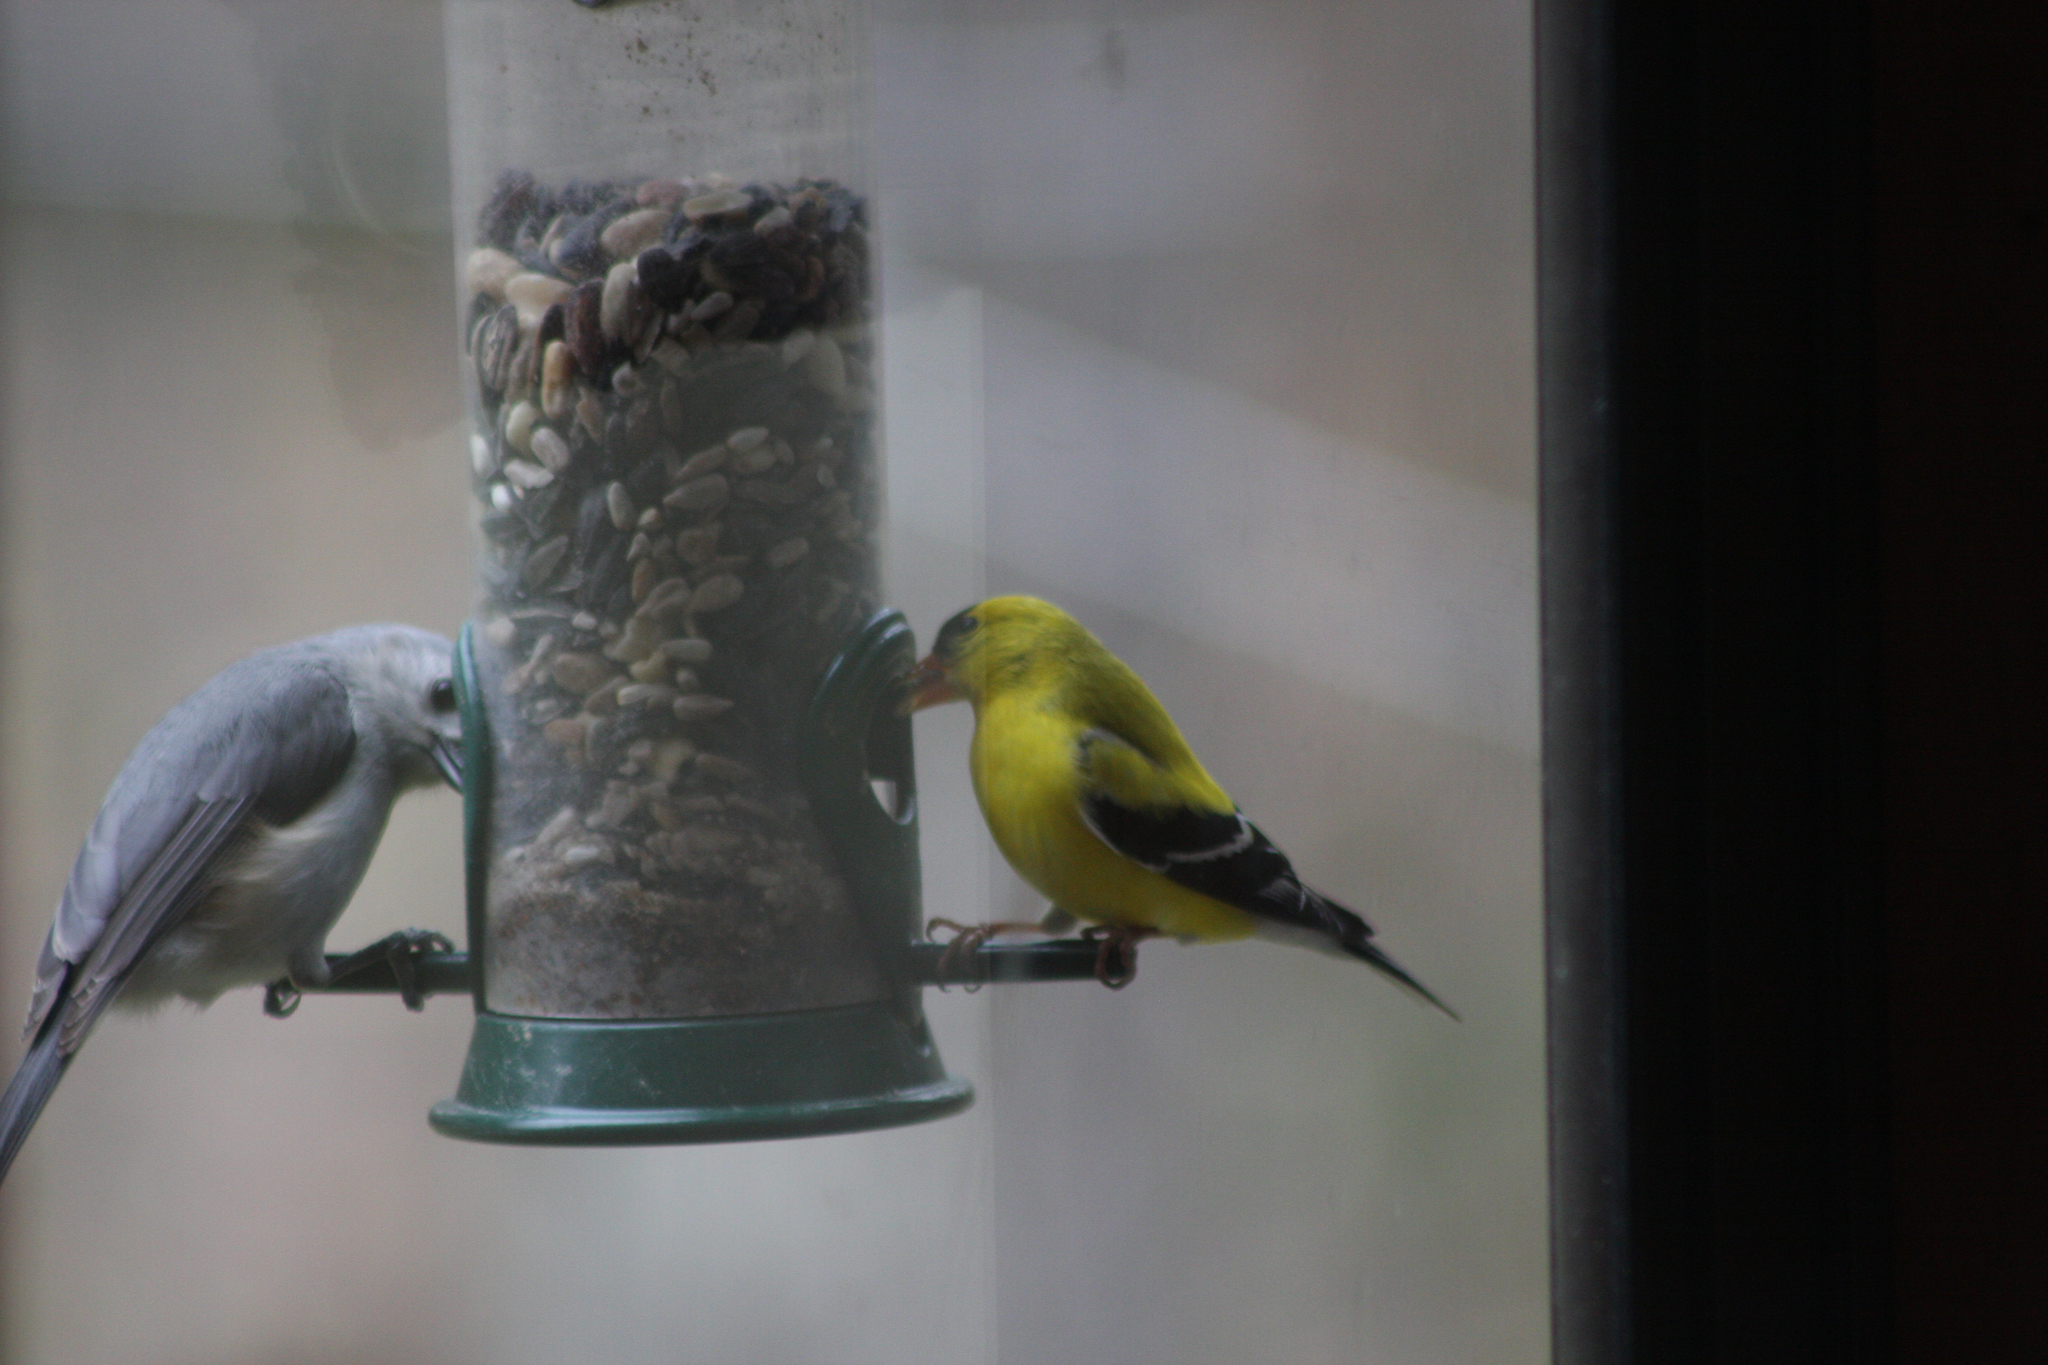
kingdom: Animalia
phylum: Chordata
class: Aves
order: Passeriformes
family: Fringillidae
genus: Spinus
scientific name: Spinus tristis
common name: American goldfinch
